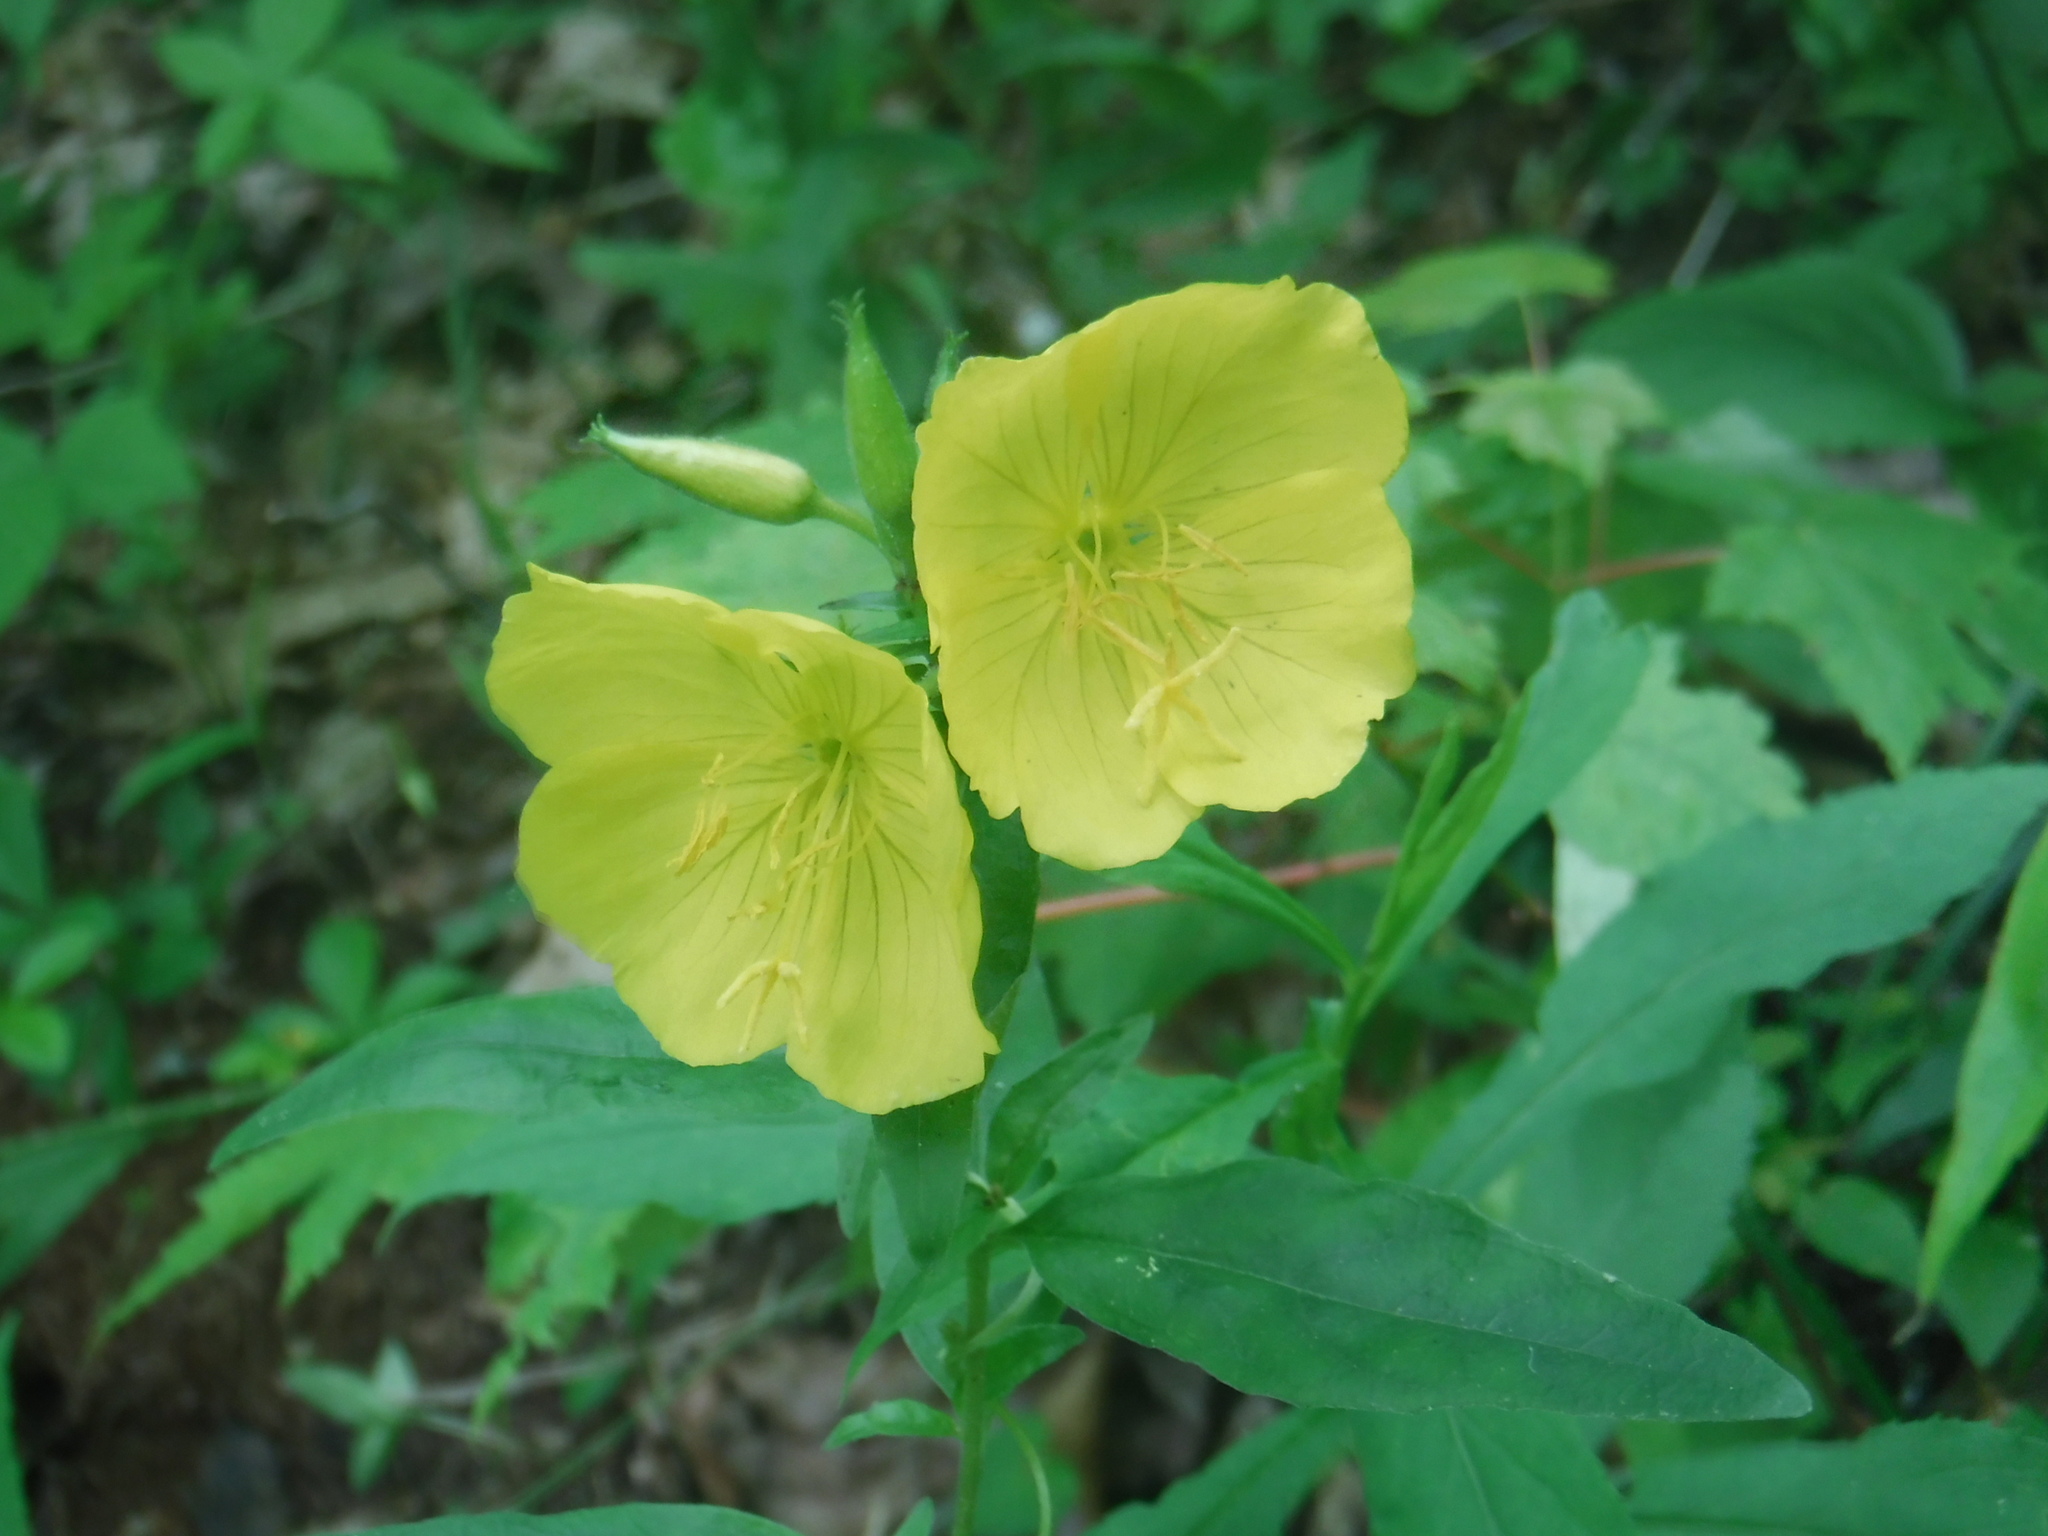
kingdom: Plantae
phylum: Tracheophyta
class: Magnoliopsida
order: Myrtales
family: Onagraceae
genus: Oenothera
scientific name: Oenothera tetragona
